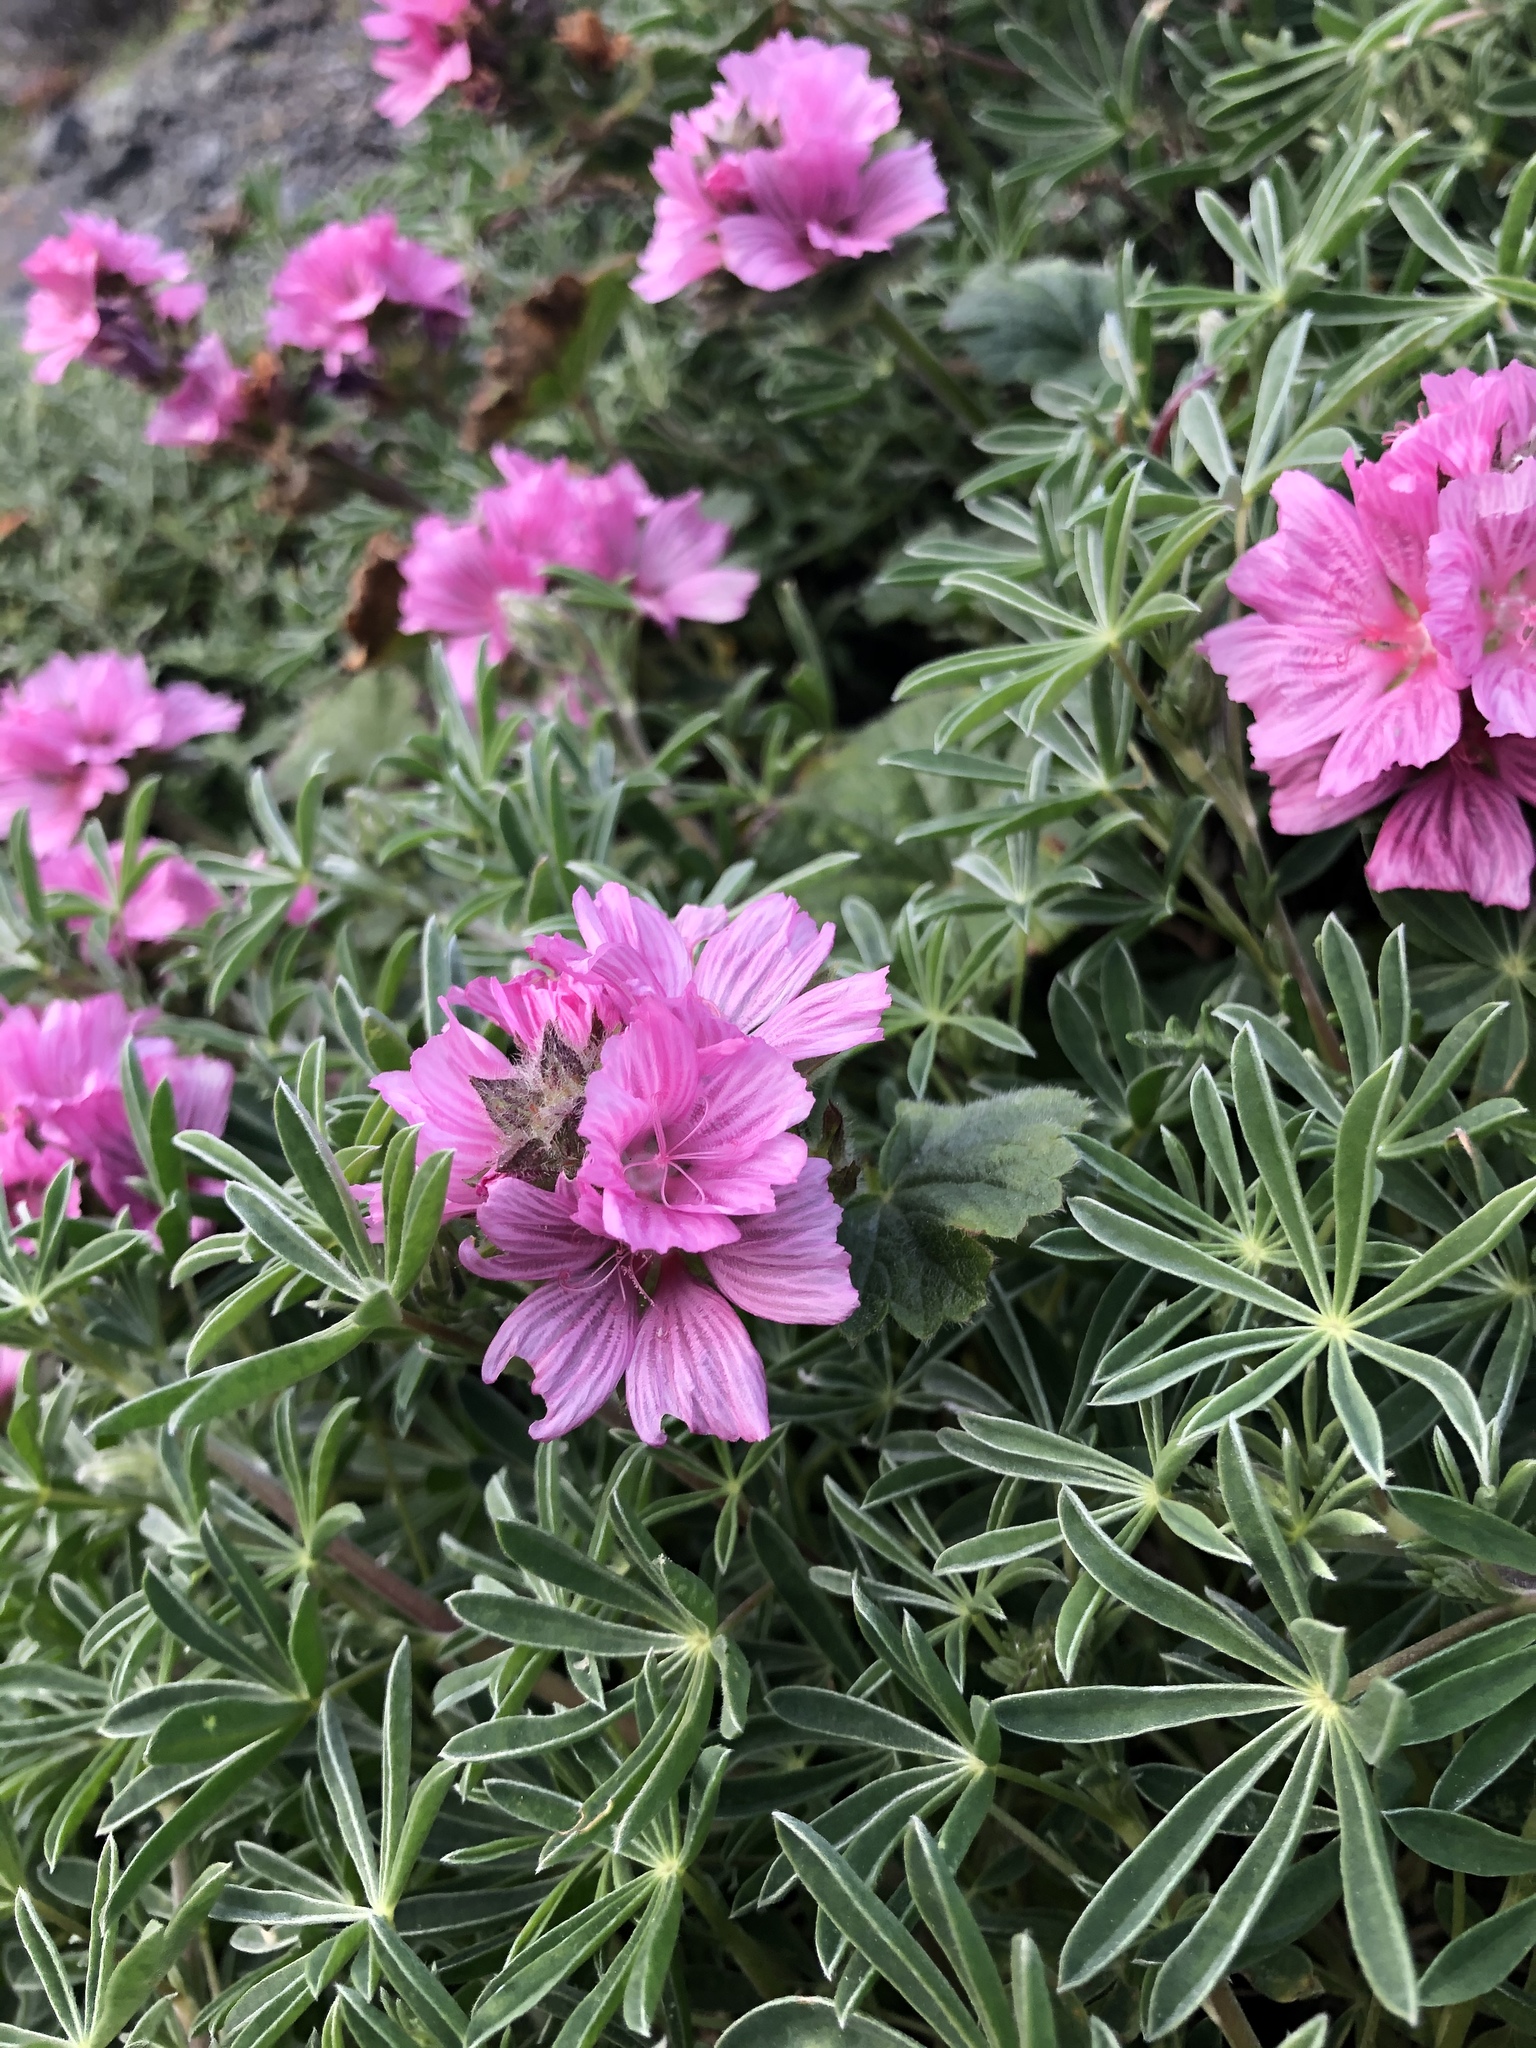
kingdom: Plantae
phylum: Tracheophyta
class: Magnoliopsida
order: Malvales
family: Malvaceae
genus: Sidalcea
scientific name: Sidalcea malviflora
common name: Greek mallow
